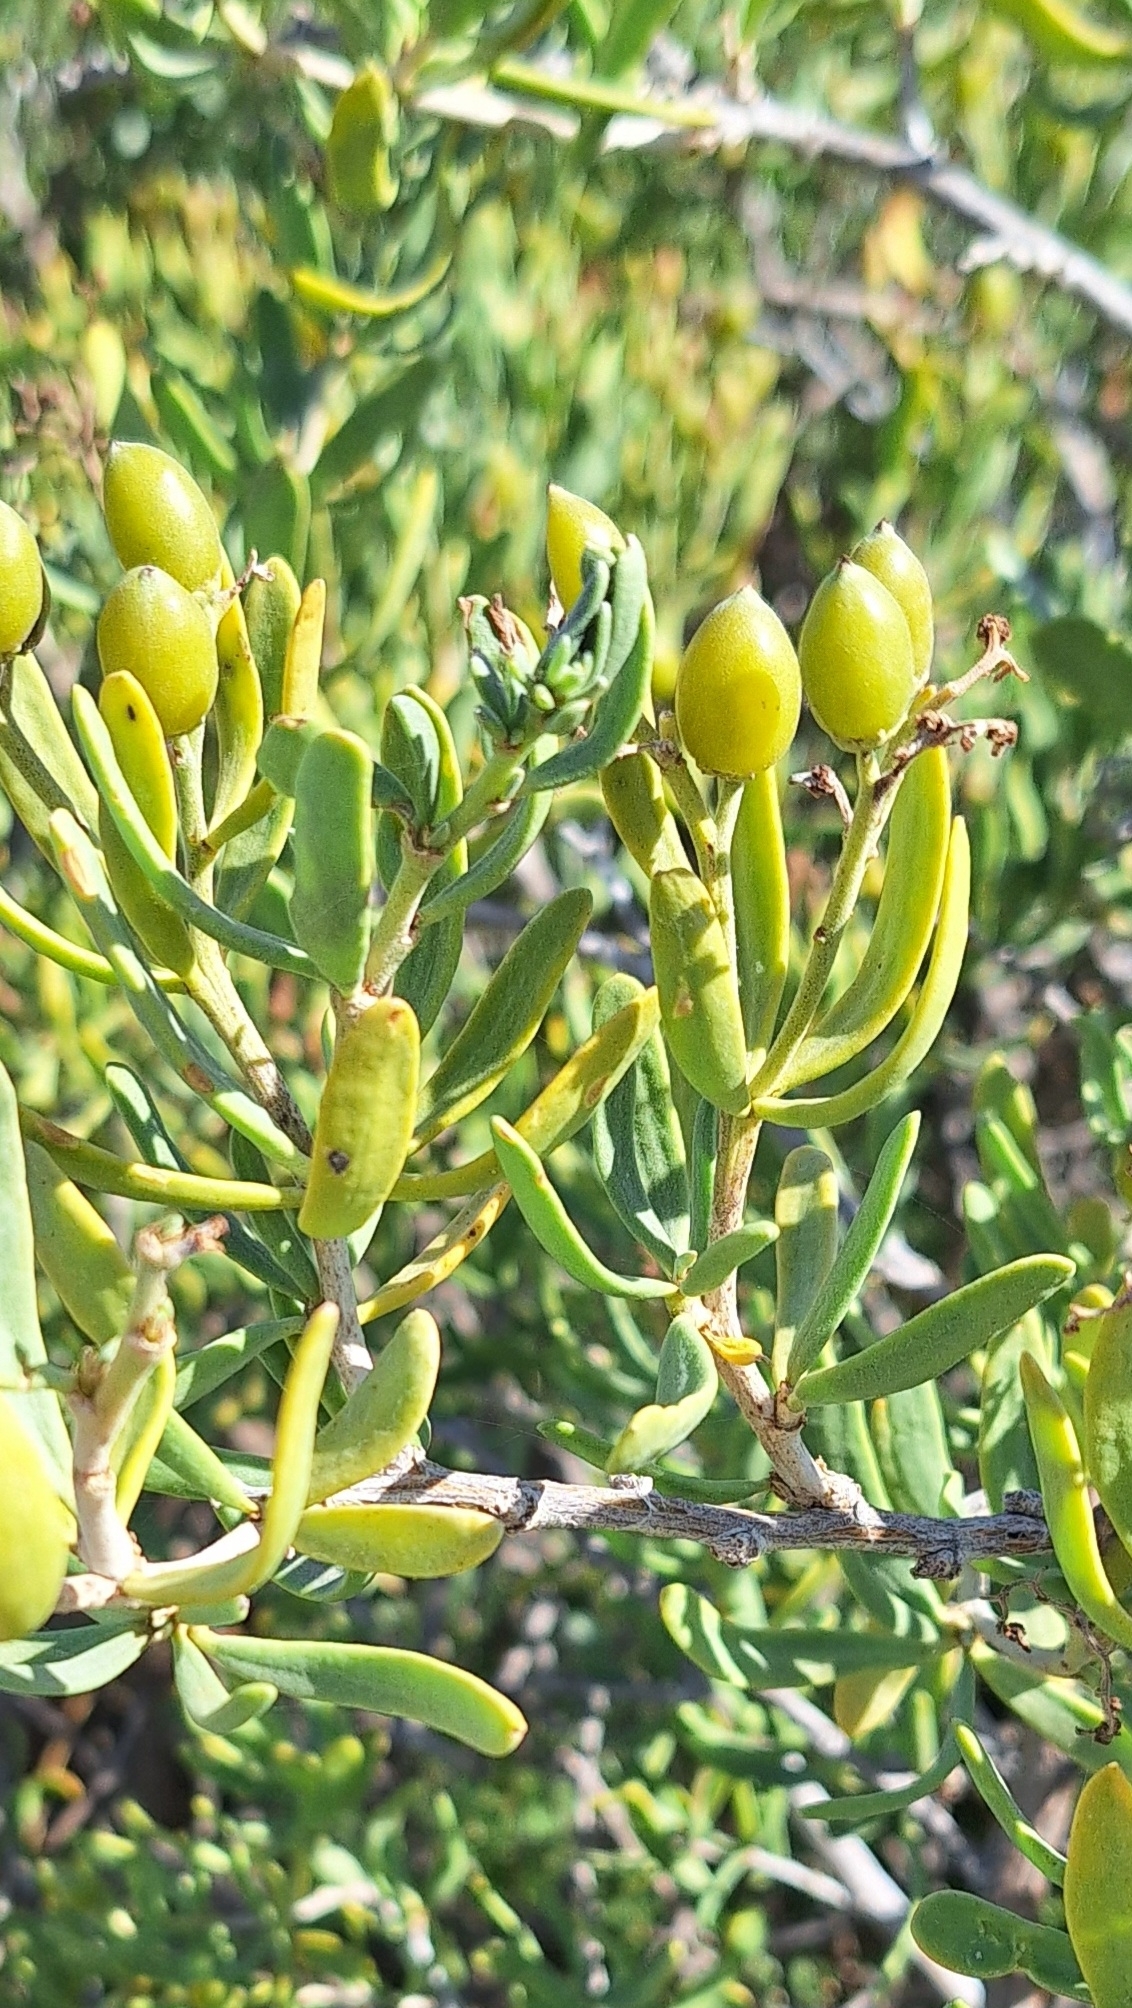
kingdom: Plantae
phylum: Tracheophyta
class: Magnoliopsida
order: Sapindales
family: Nitrariaceae
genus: Nitraria
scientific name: Nitraria billardierei
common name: Dillonbush
